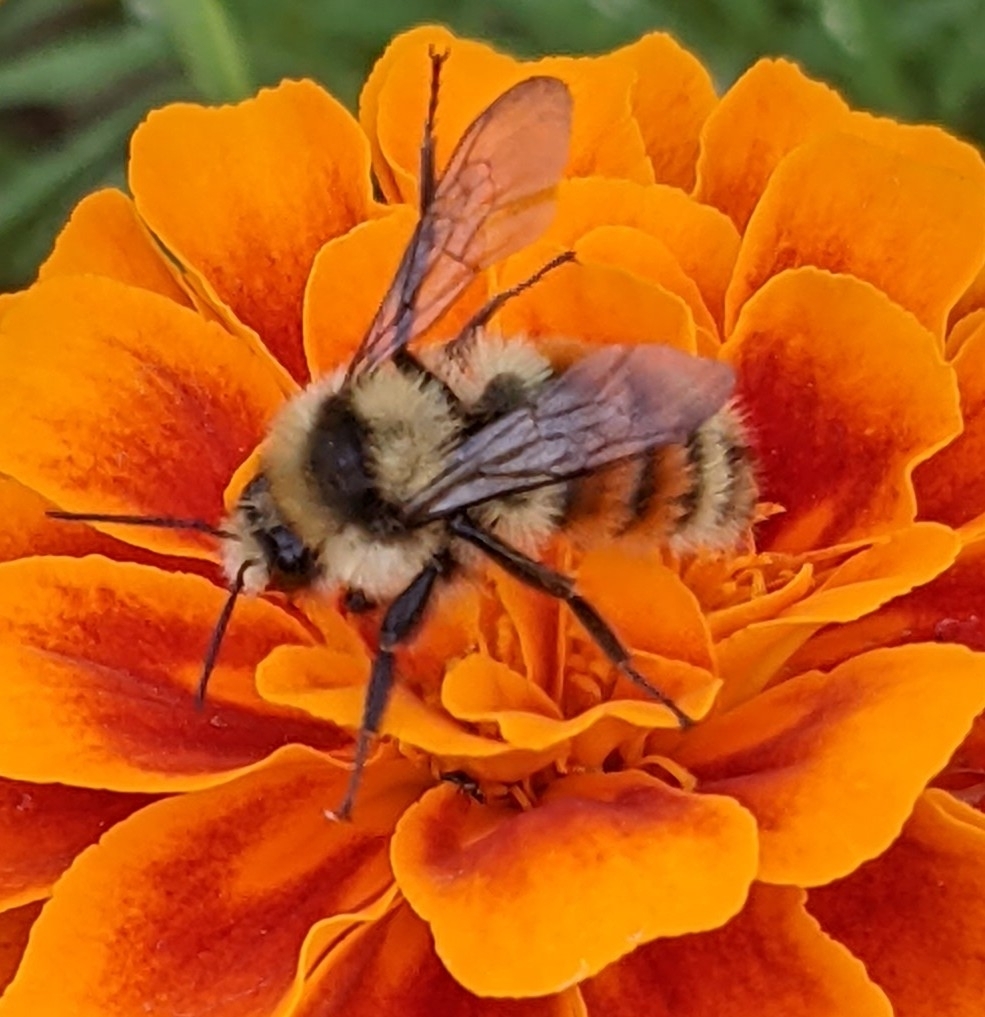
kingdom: Animalia
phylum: Arthropoda
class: Insecta
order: Hymenoptera
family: Apidae
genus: Bombus
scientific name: Bombus huntii
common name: Hunt bumble bee
